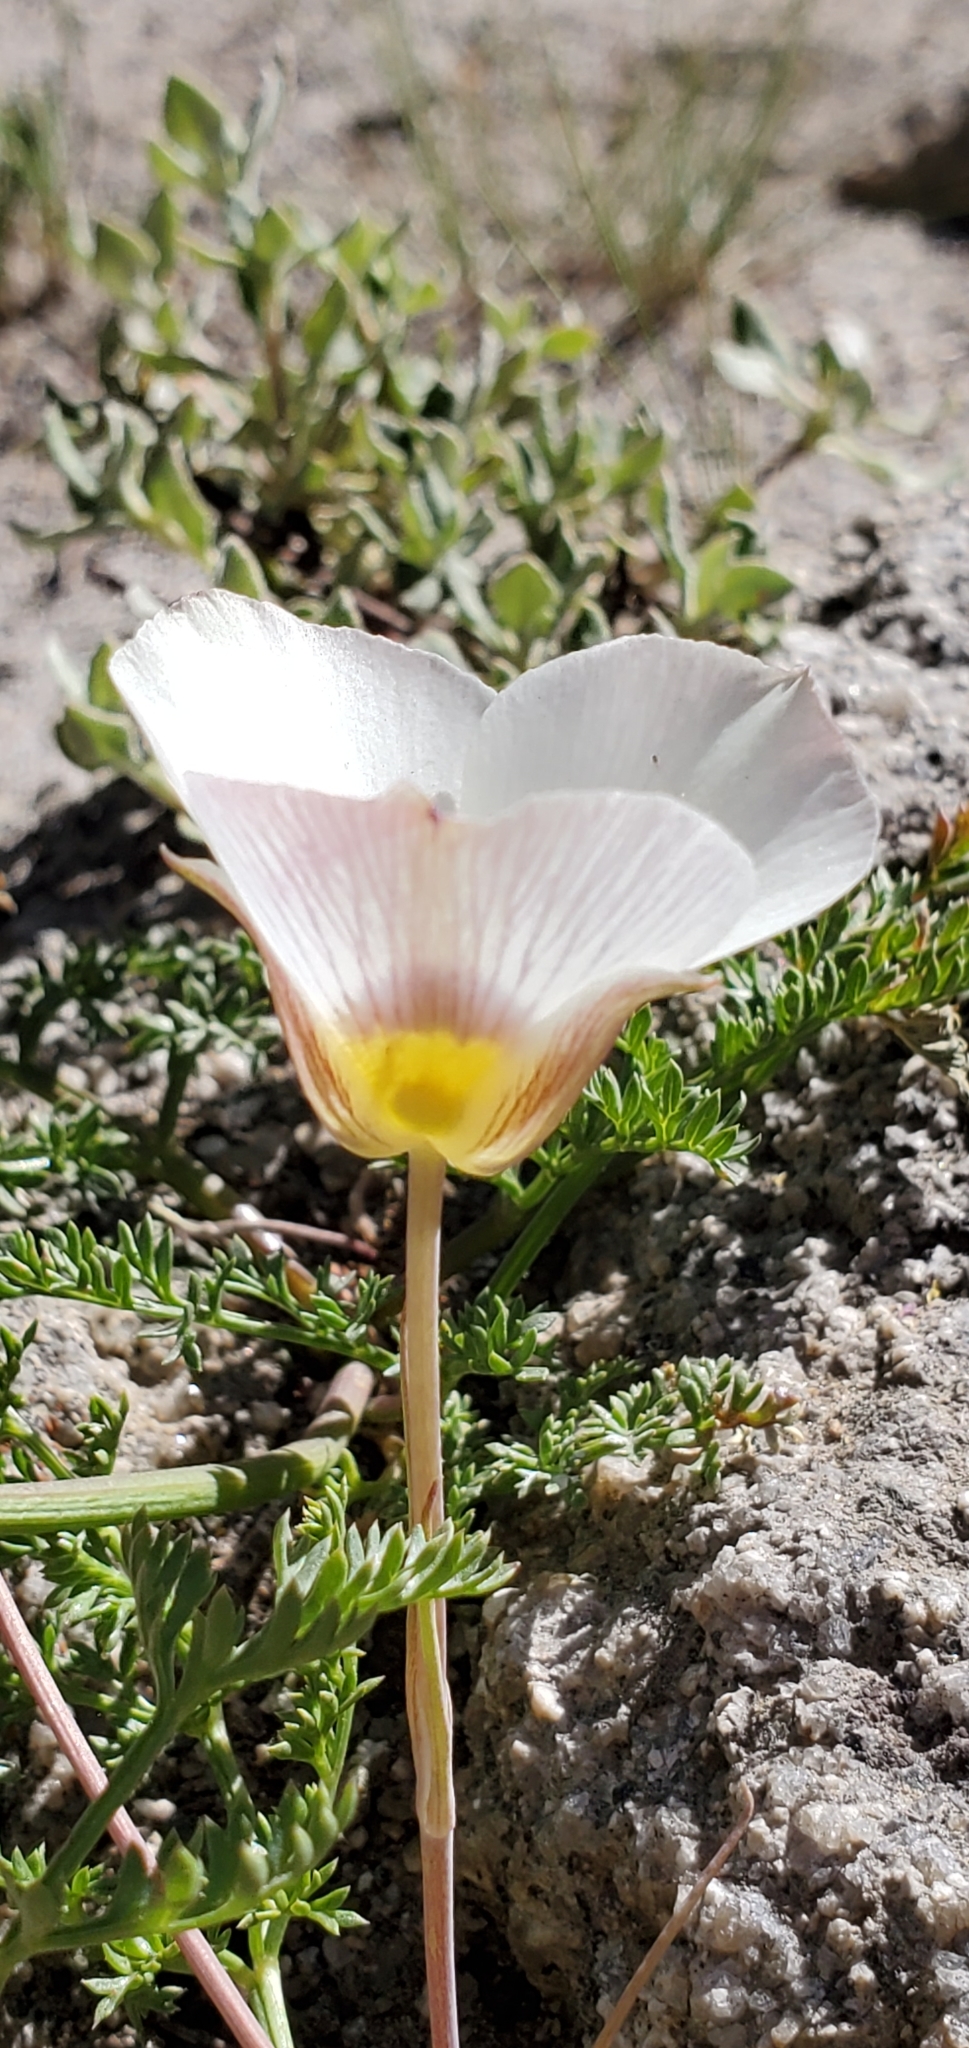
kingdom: Plantae
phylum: Tracheophyta
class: Liliopsida
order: Liliales
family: Liliaceae
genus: Calochortus
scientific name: Calochortus leichtlinii
